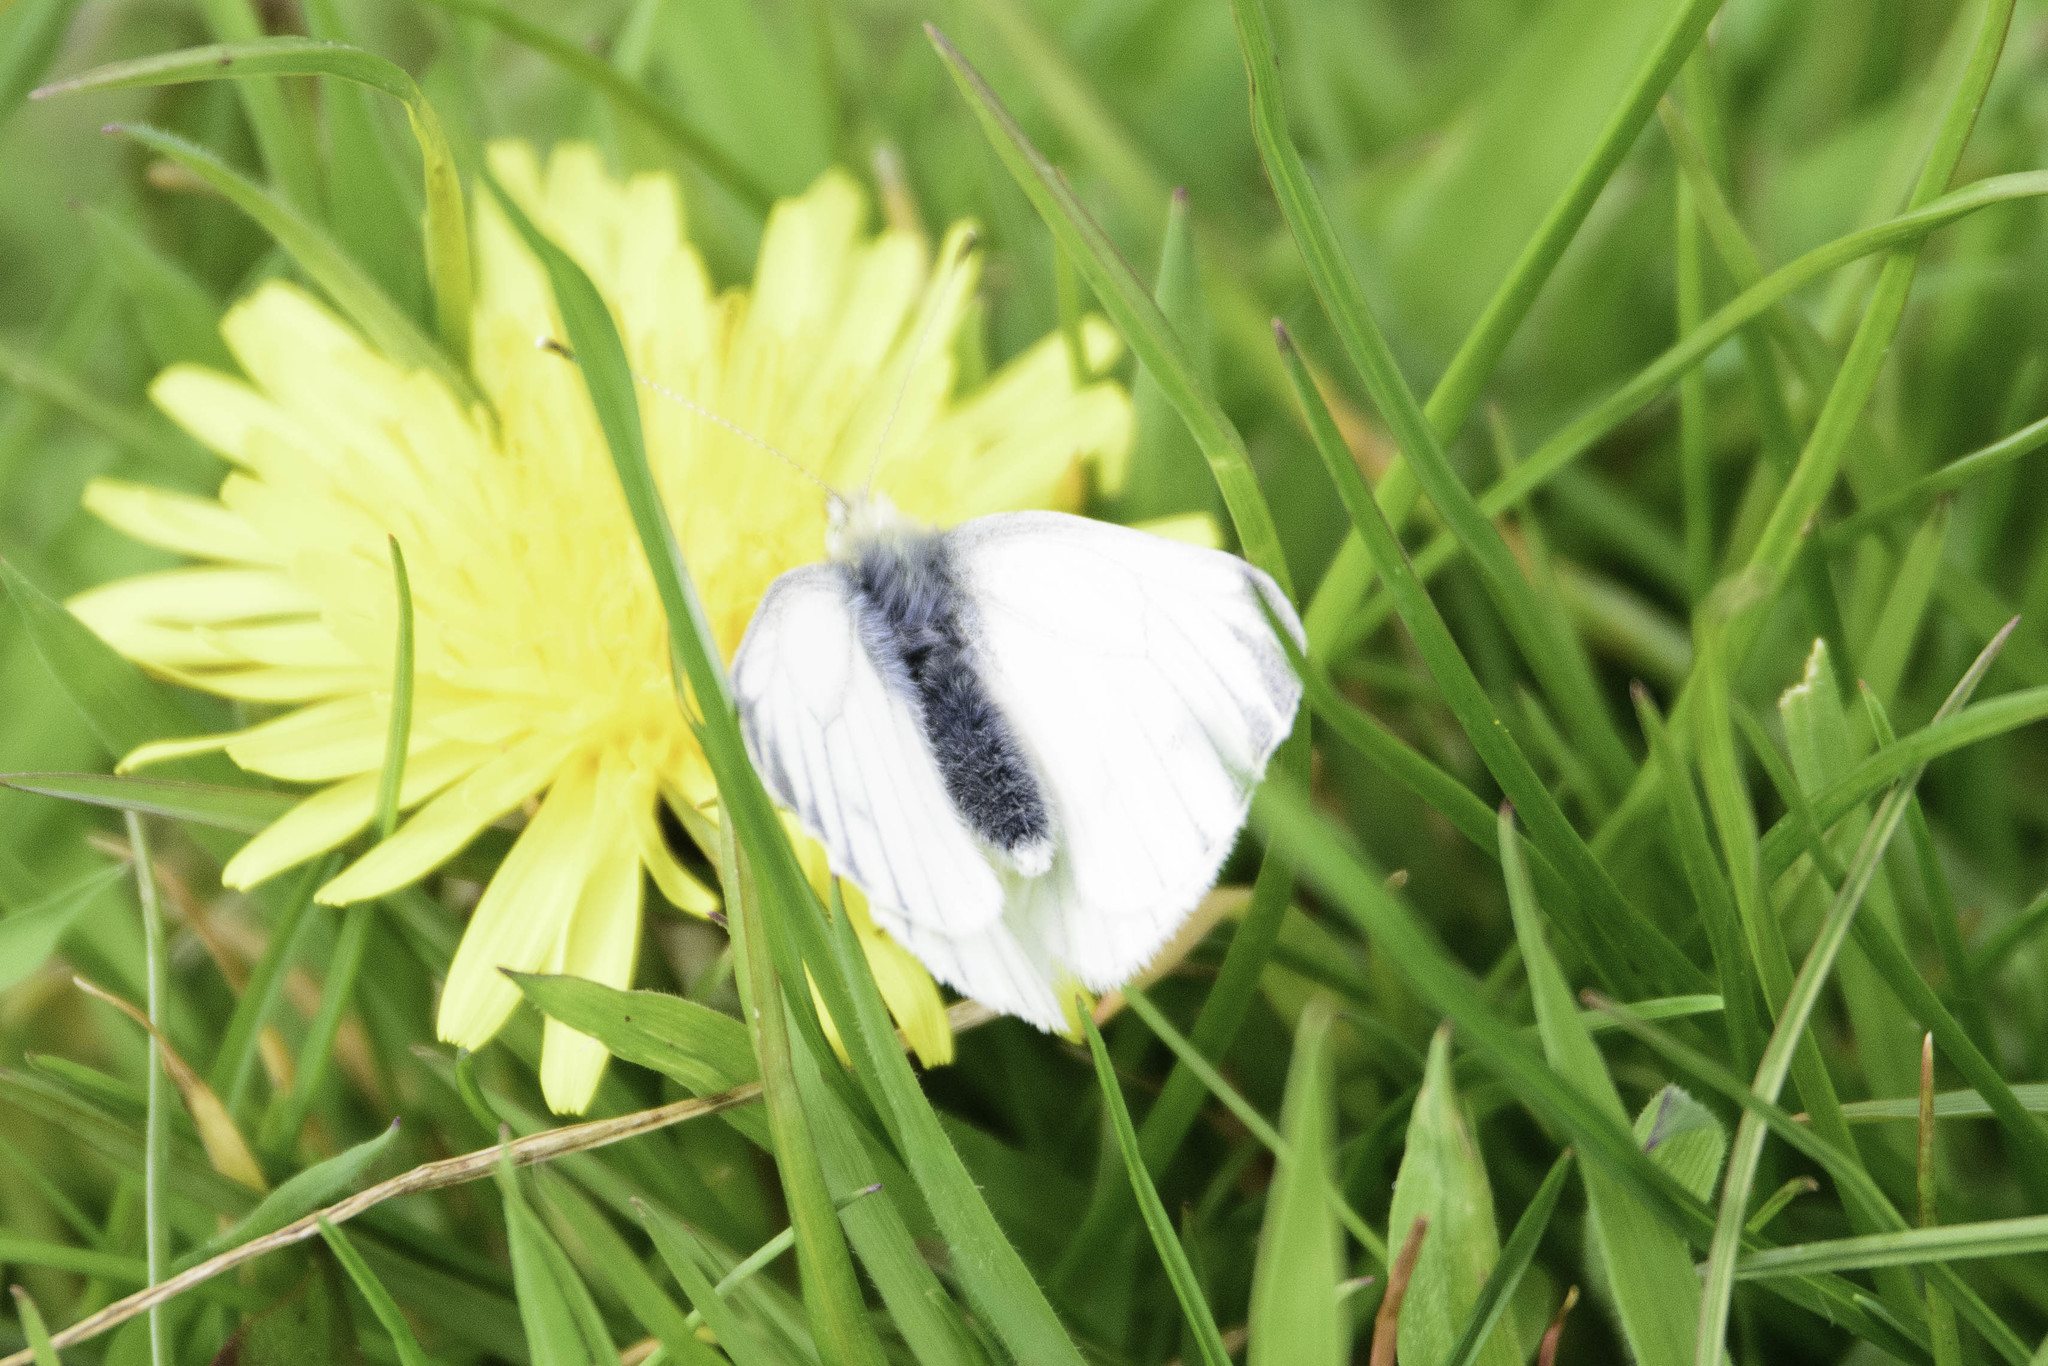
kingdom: Animalia
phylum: Arthropoda
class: Insecta
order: Lepidoptera
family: Pieridae
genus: Pieris
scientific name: Pieris napi
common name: Green-veined white
